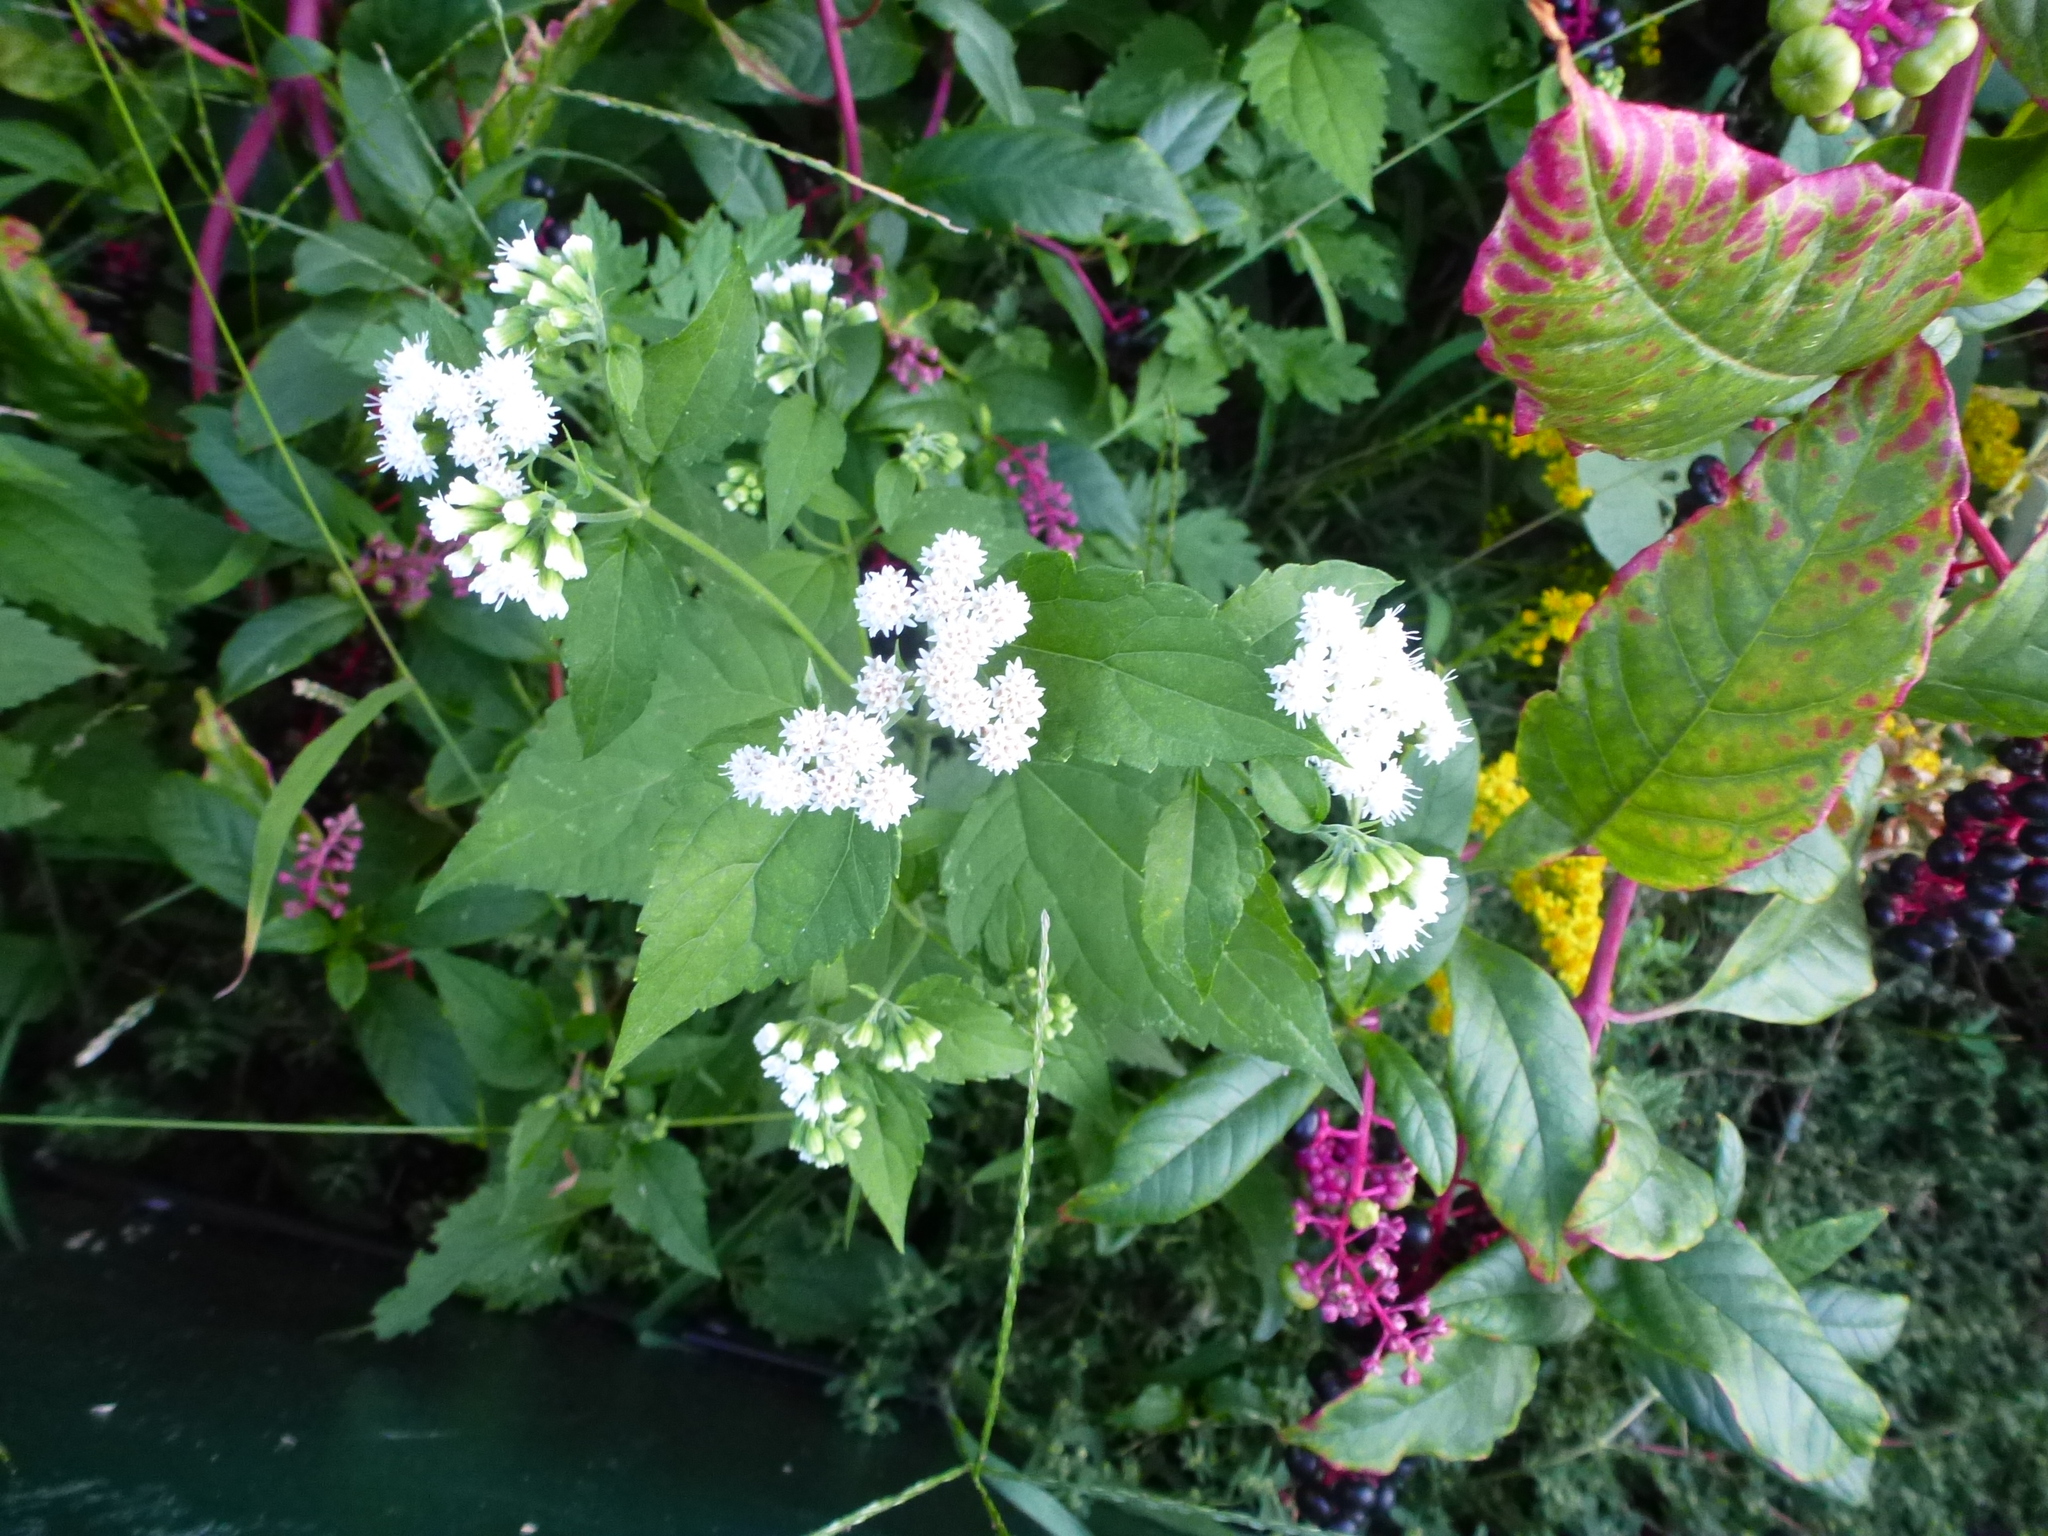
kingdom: Plantae
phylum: Tracheophyta
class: Magnoliopsida
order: Asterales
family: Asteraceae
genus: Ageratina
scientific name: Ageratina altissima
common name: White snakeroot
